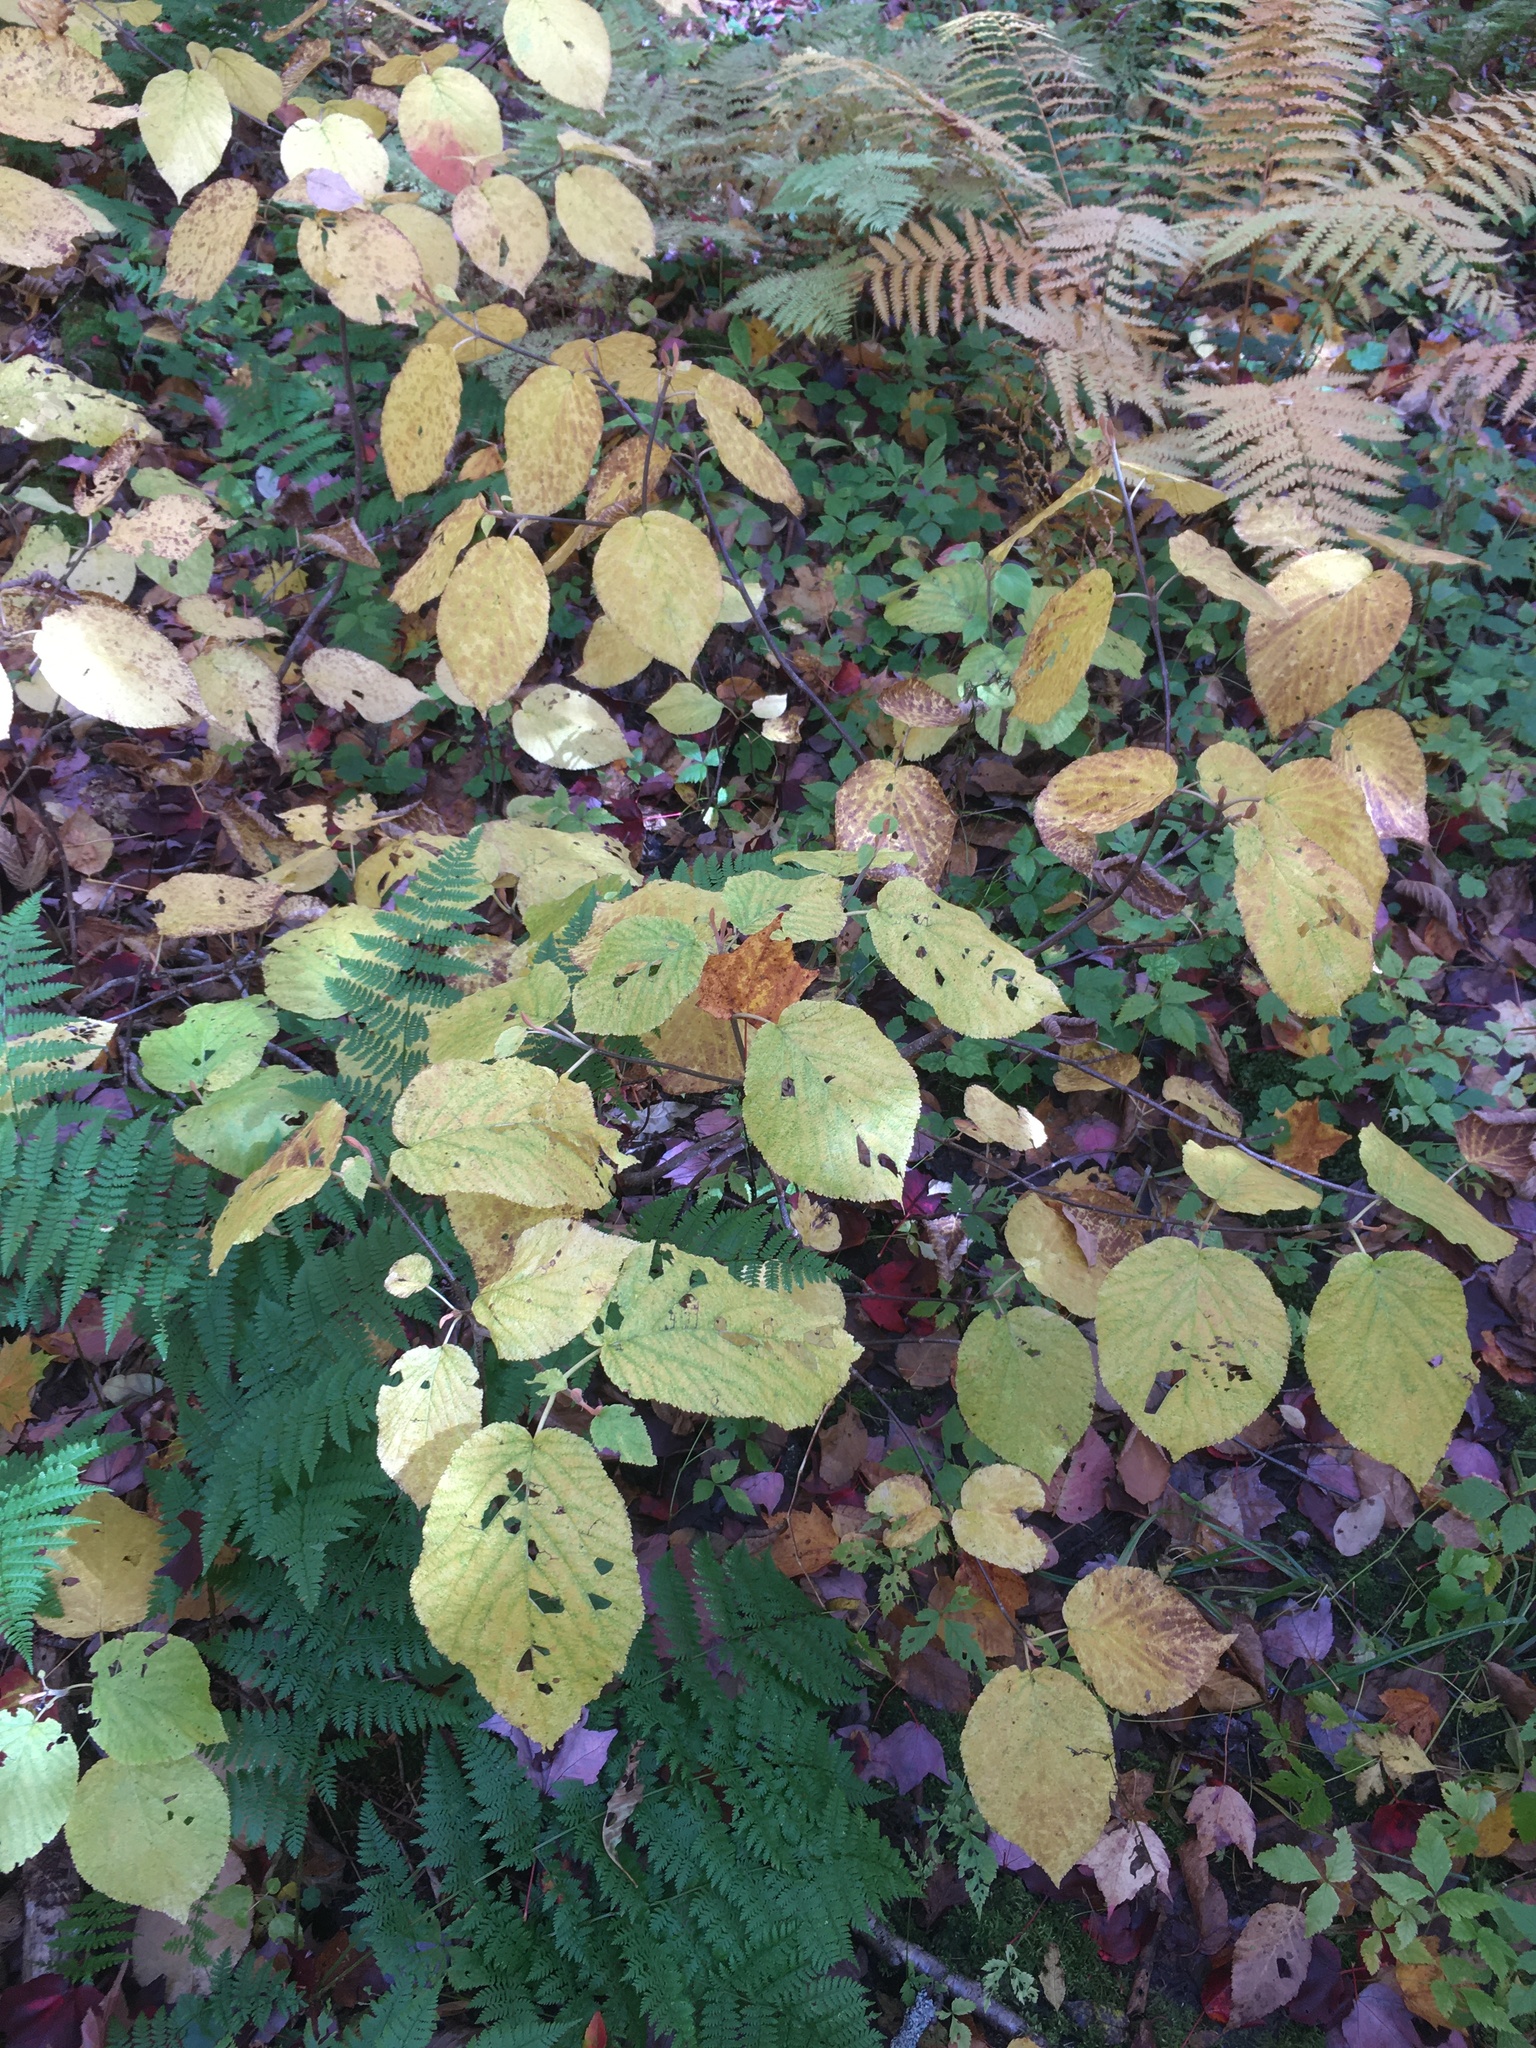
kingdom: Plantae
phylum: Tracheophyta
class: Magnoliopsida
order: Dipsacales
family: Viburnaceae
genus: Viburnum
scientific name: Viburnum lantanoides
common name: Hobblebush
